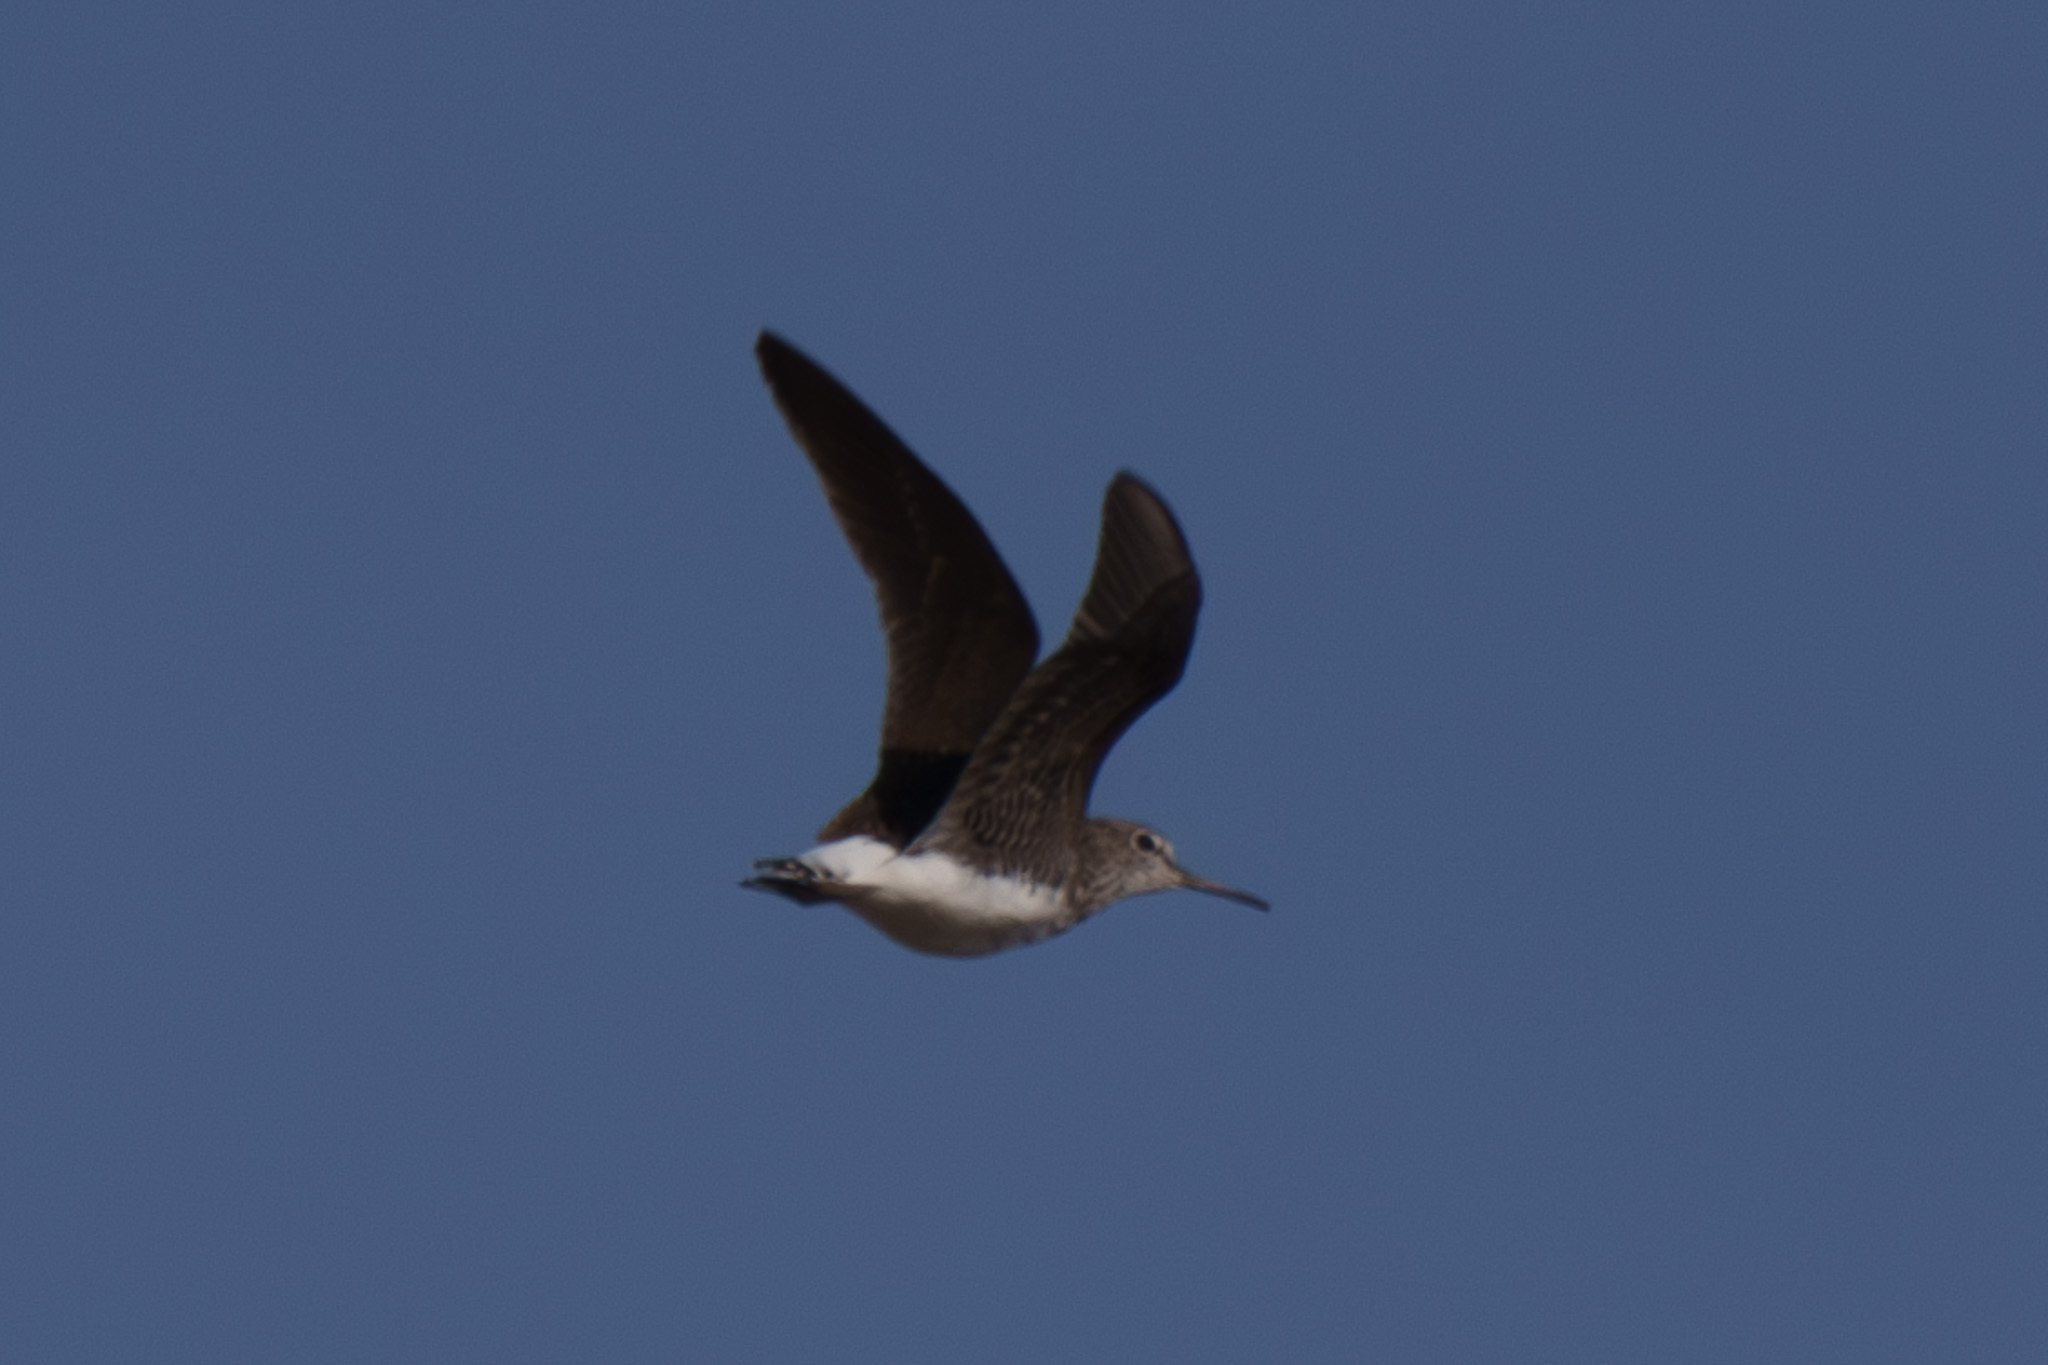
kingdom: Animalia
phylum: Chordata
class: Aves
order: Charadriiformes
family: Scolopacidae
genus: Tringa
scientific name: Tringa ochropus
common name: Green sandpiper
